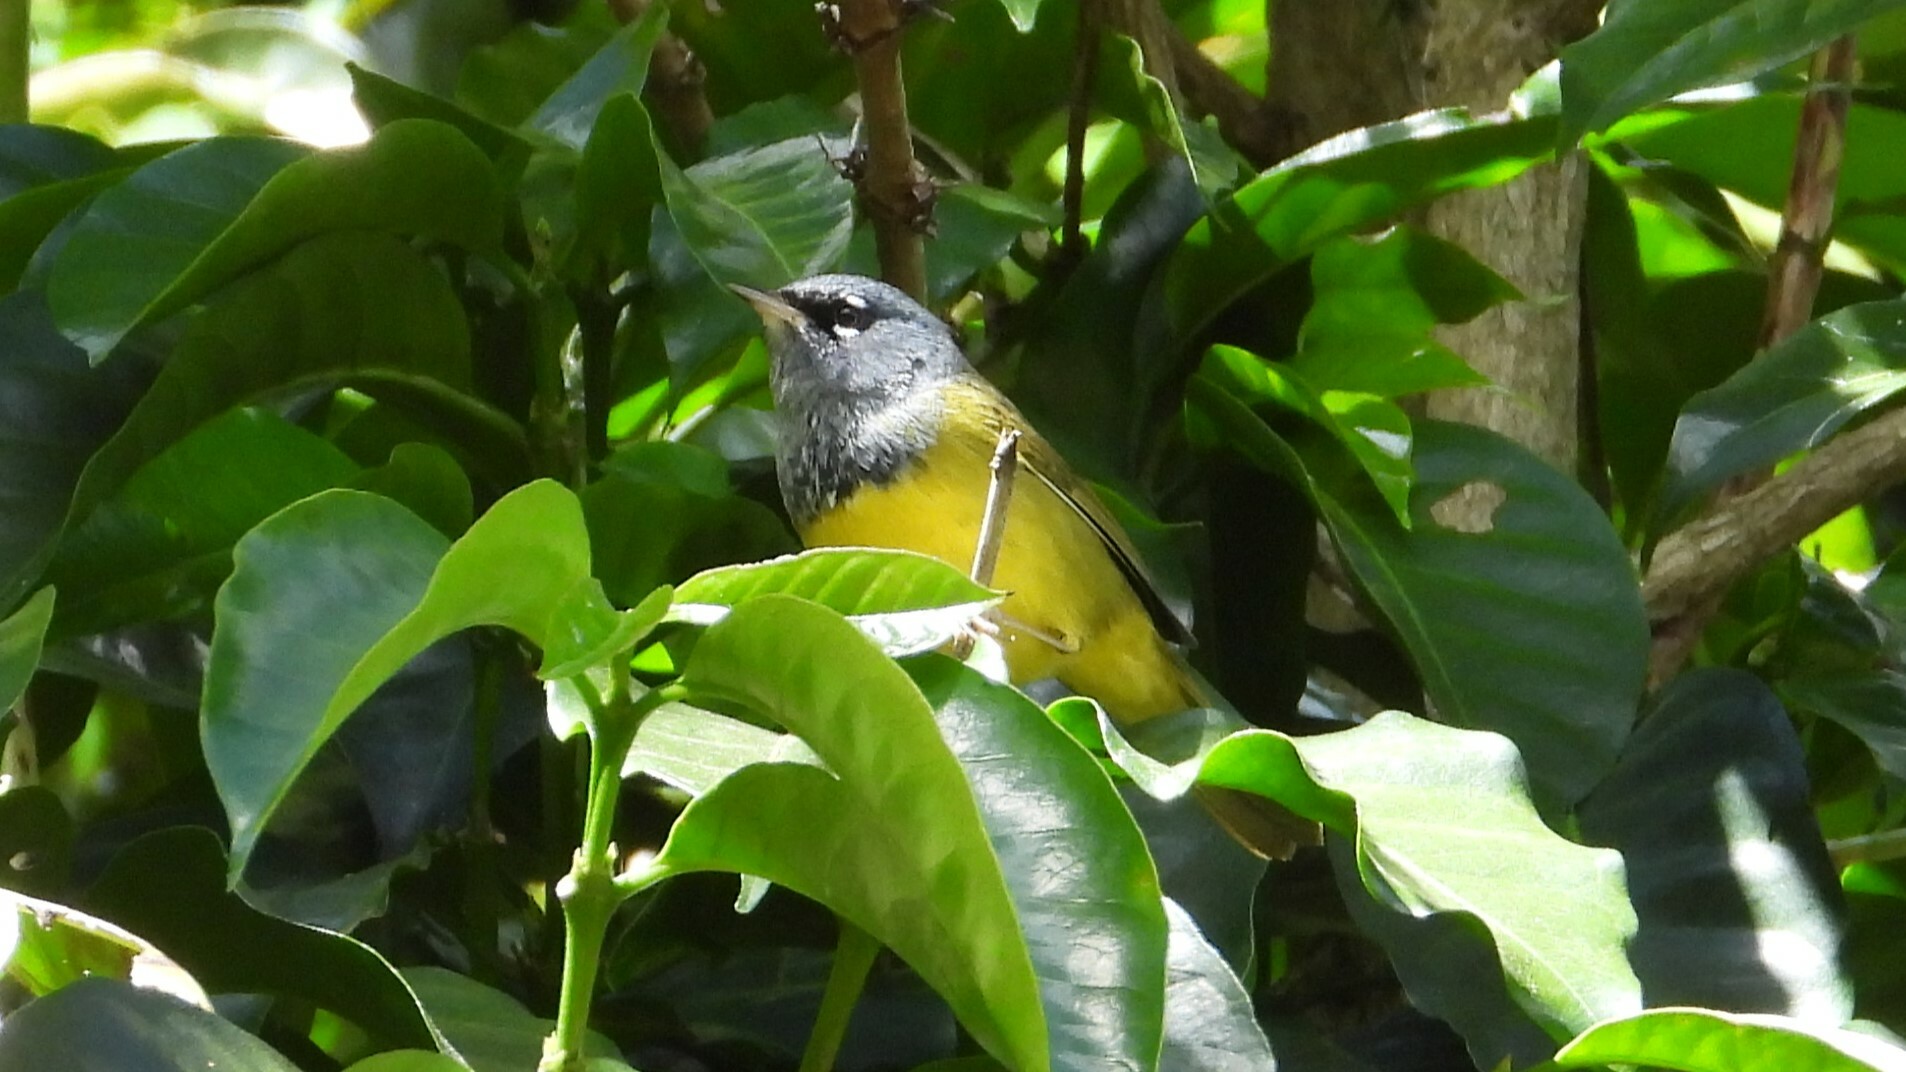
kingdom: Animalia
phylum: Chordata
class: Aves
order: Passeriformes
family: Parulidae
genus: Geothlypis
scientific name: Geothlypis tolmiei
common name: Macgillivray's warbler
